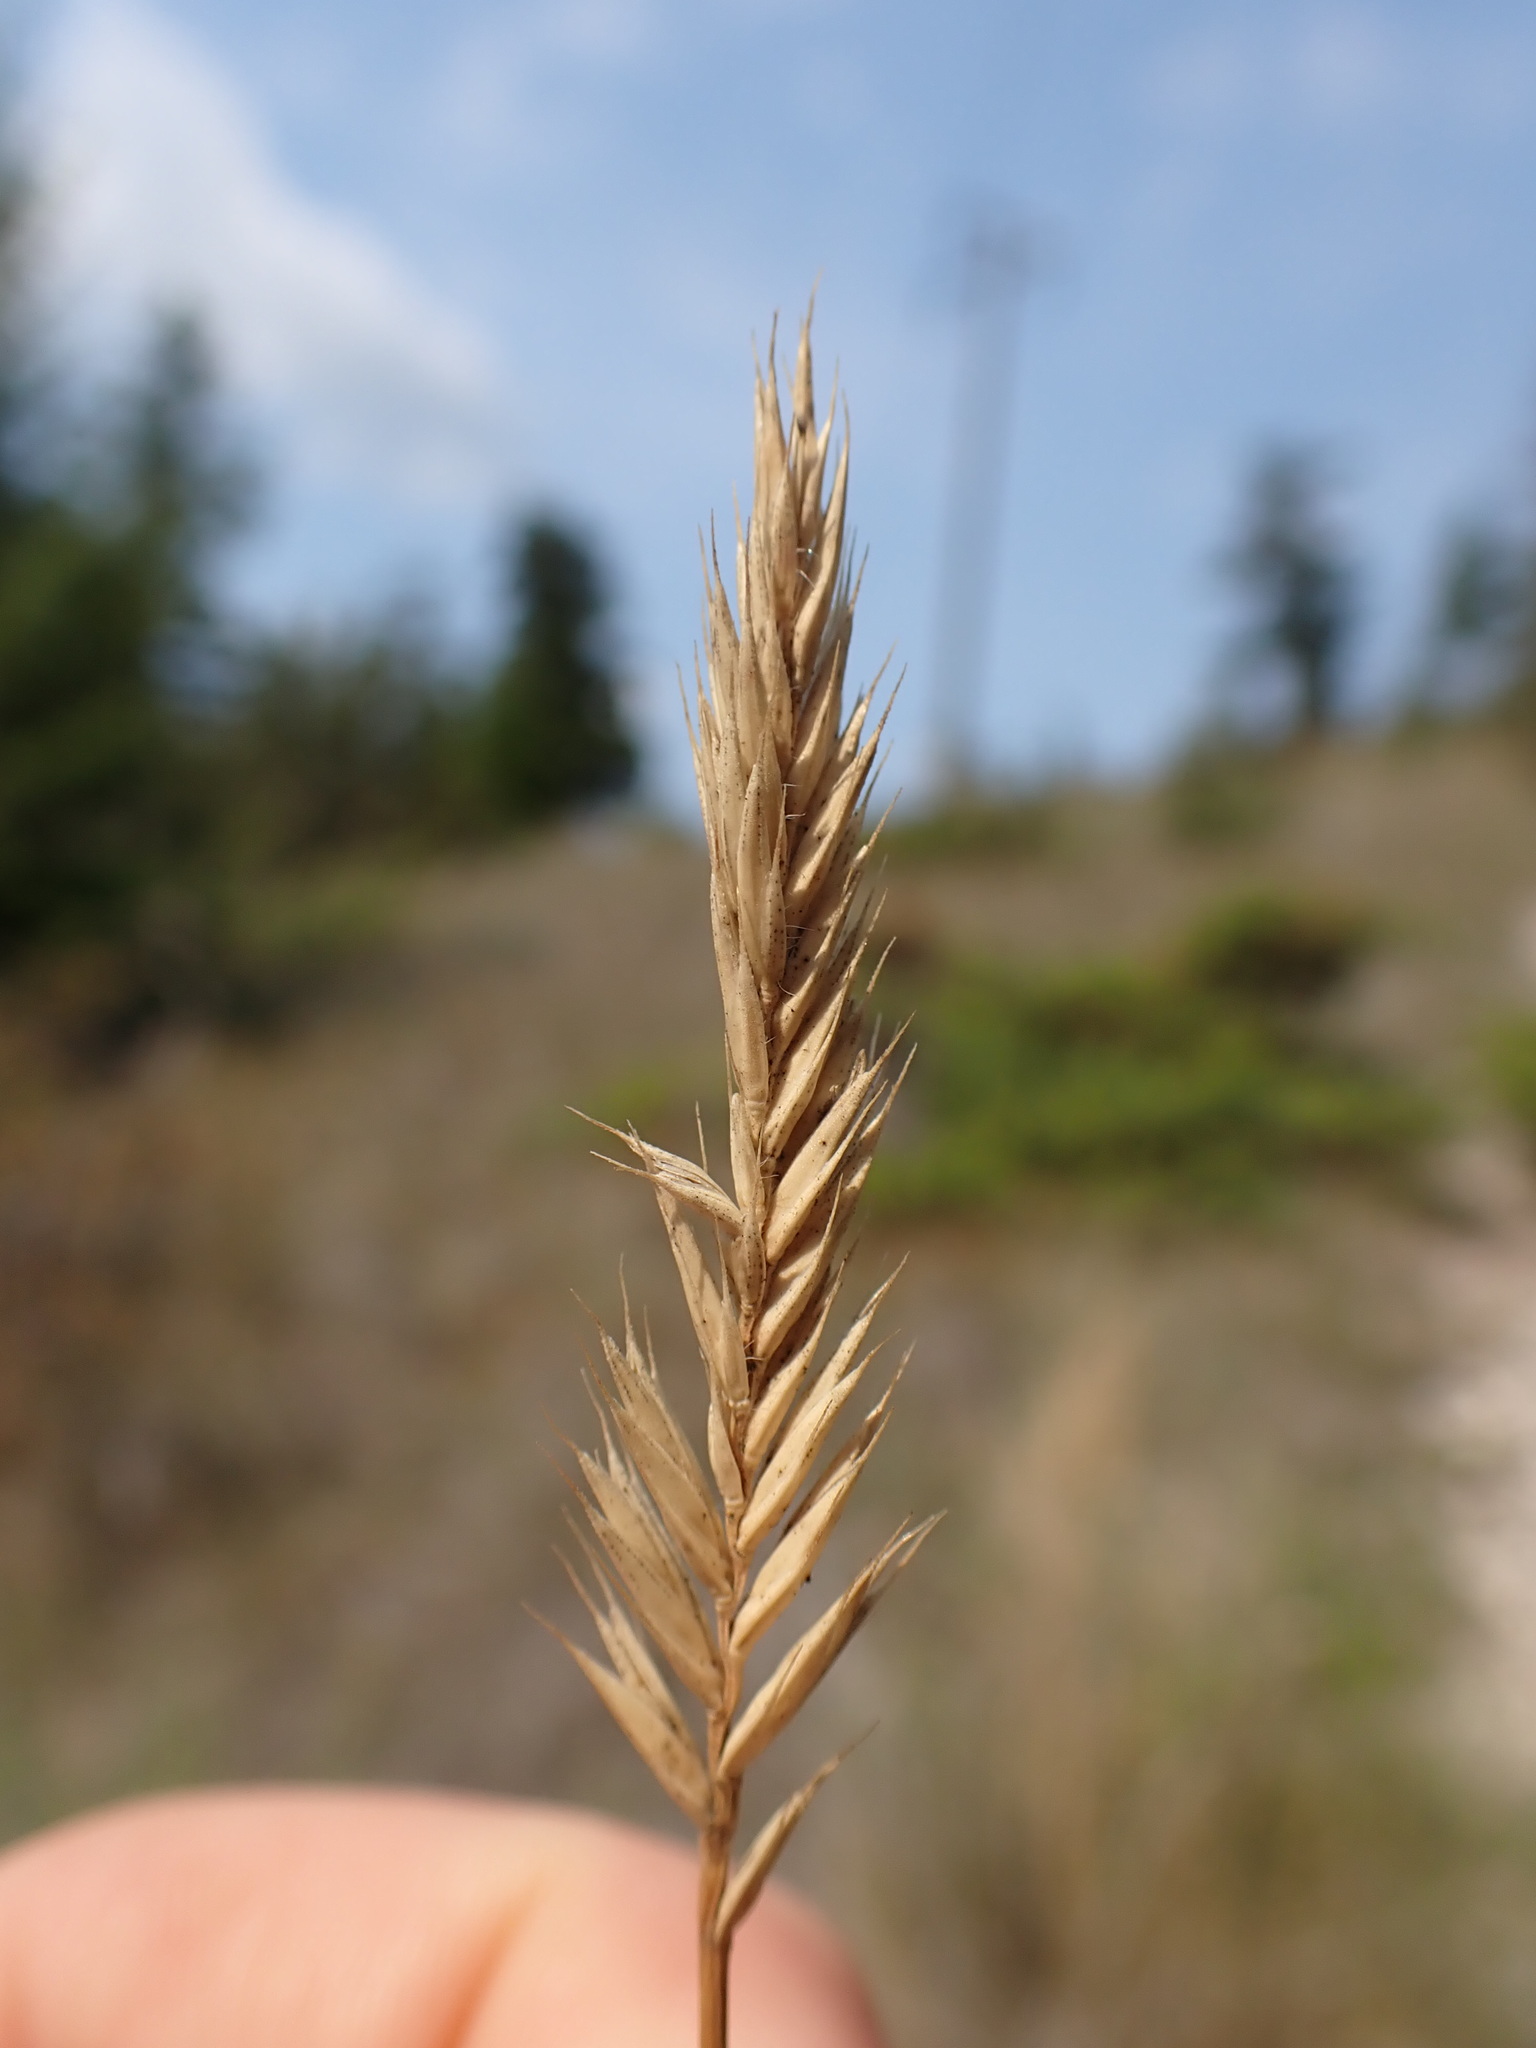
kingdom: Plantae
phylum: Tracheophyta
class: Liliopsida
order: Poales
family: Poaceae
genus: Agropyron
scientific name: Agropyron cristatum
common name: Crested wheatgrass
